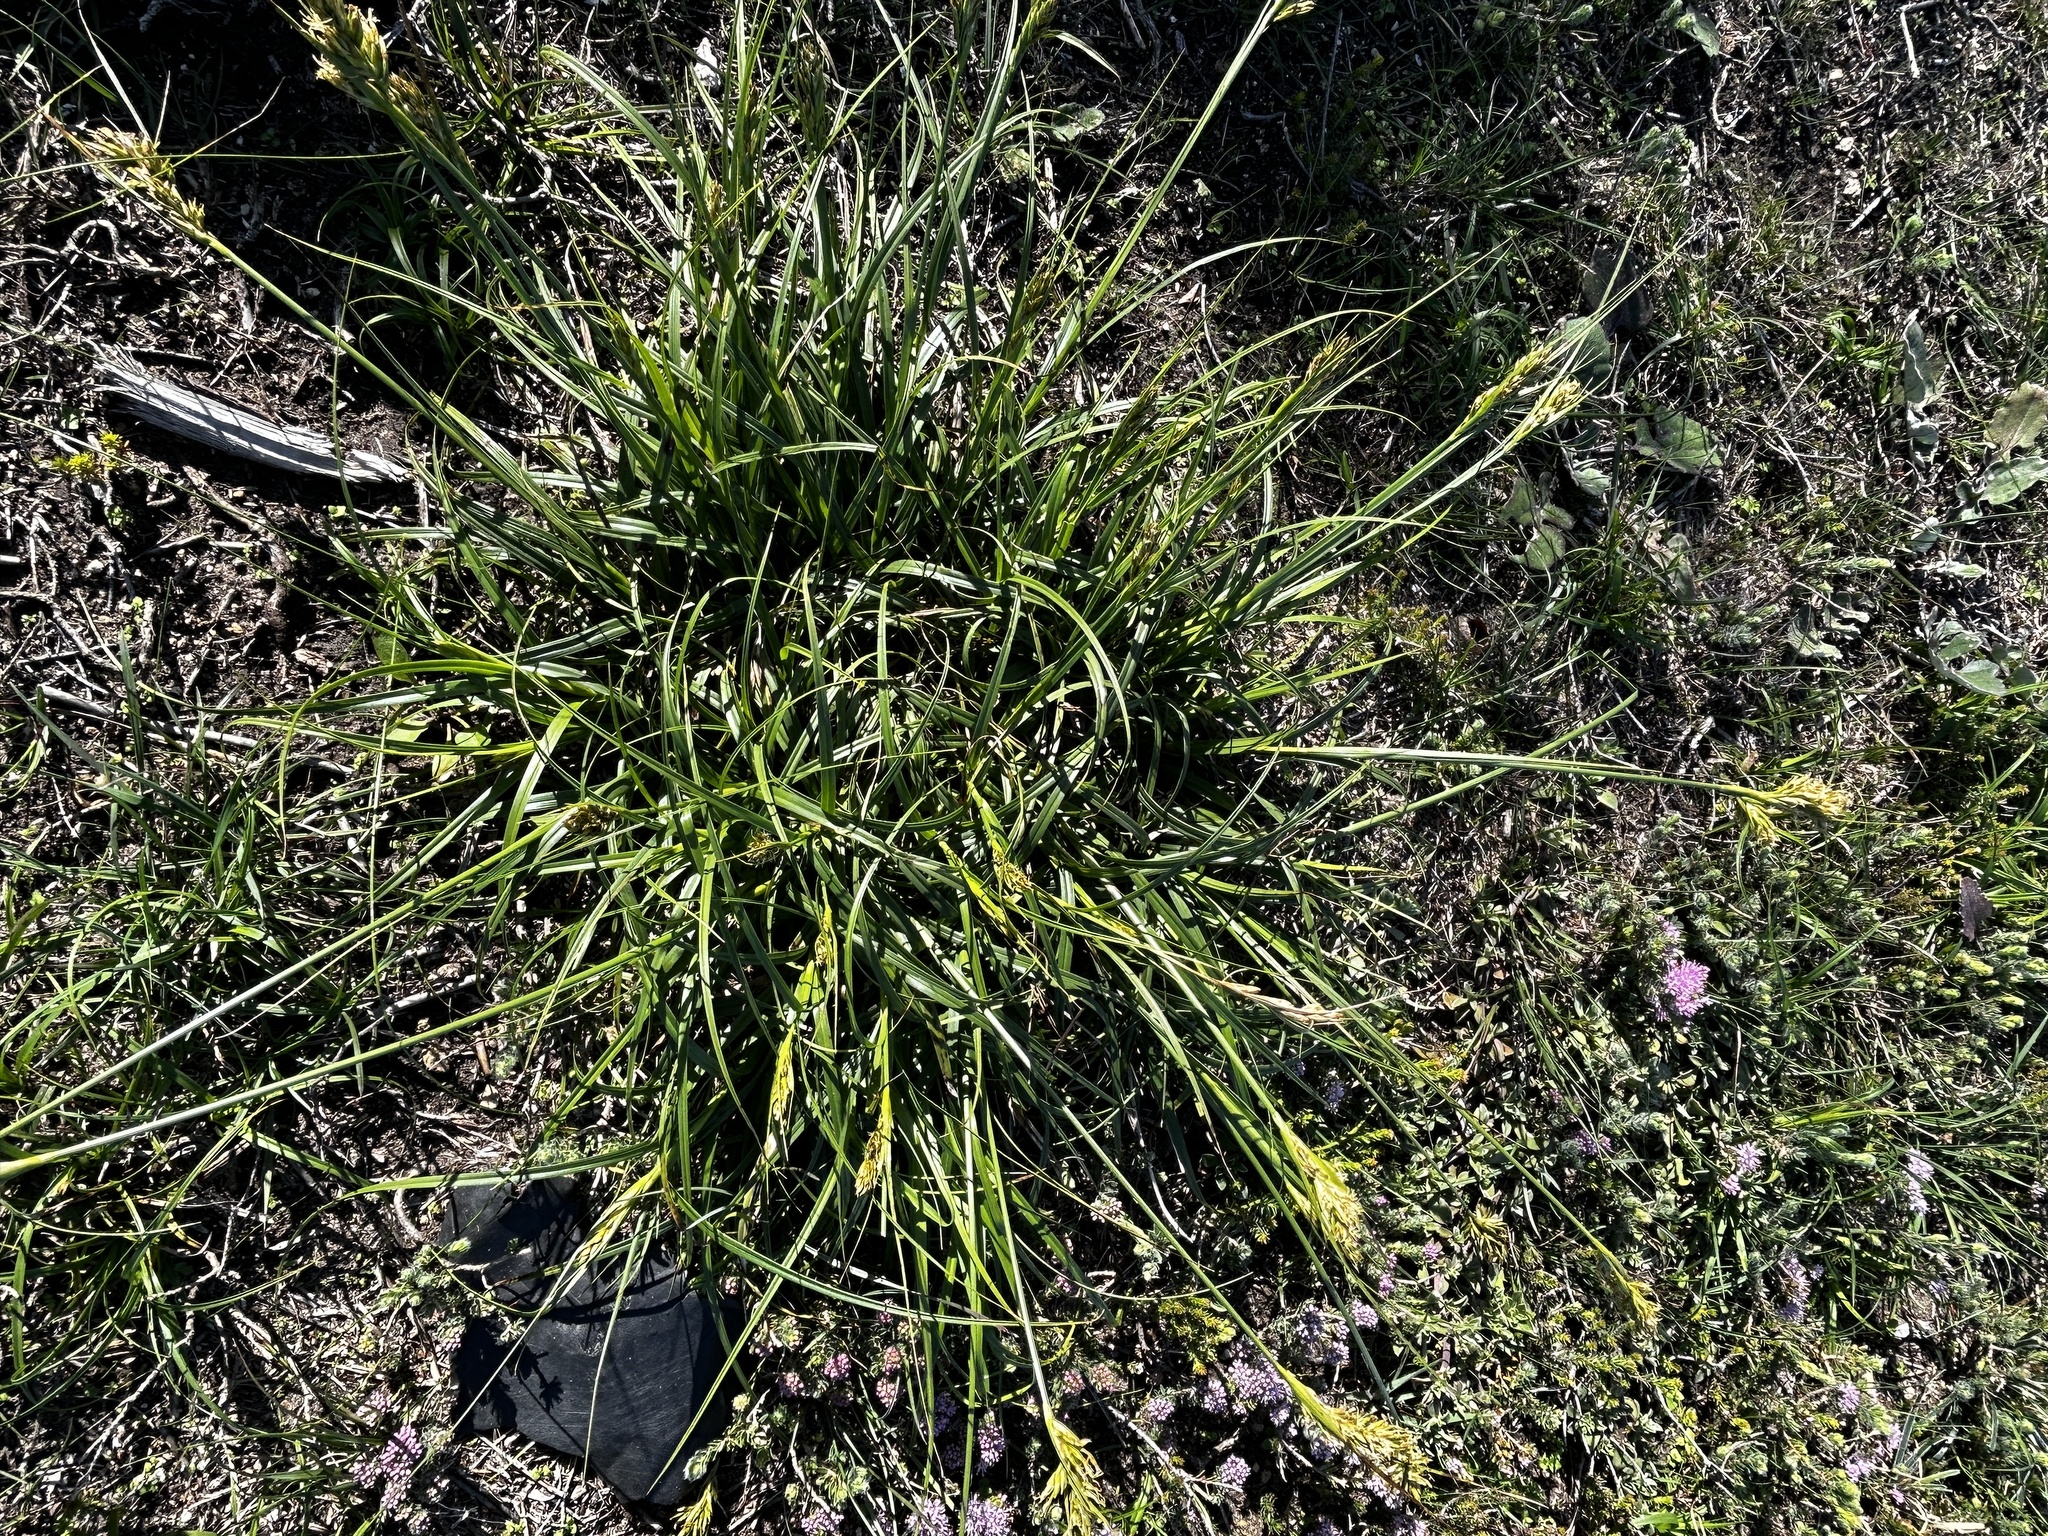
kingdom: Plantae
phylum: Tracheophyta
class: Liliopsida
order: Poales
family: Cyperaceae
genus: Carex
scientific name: Carex capensis
